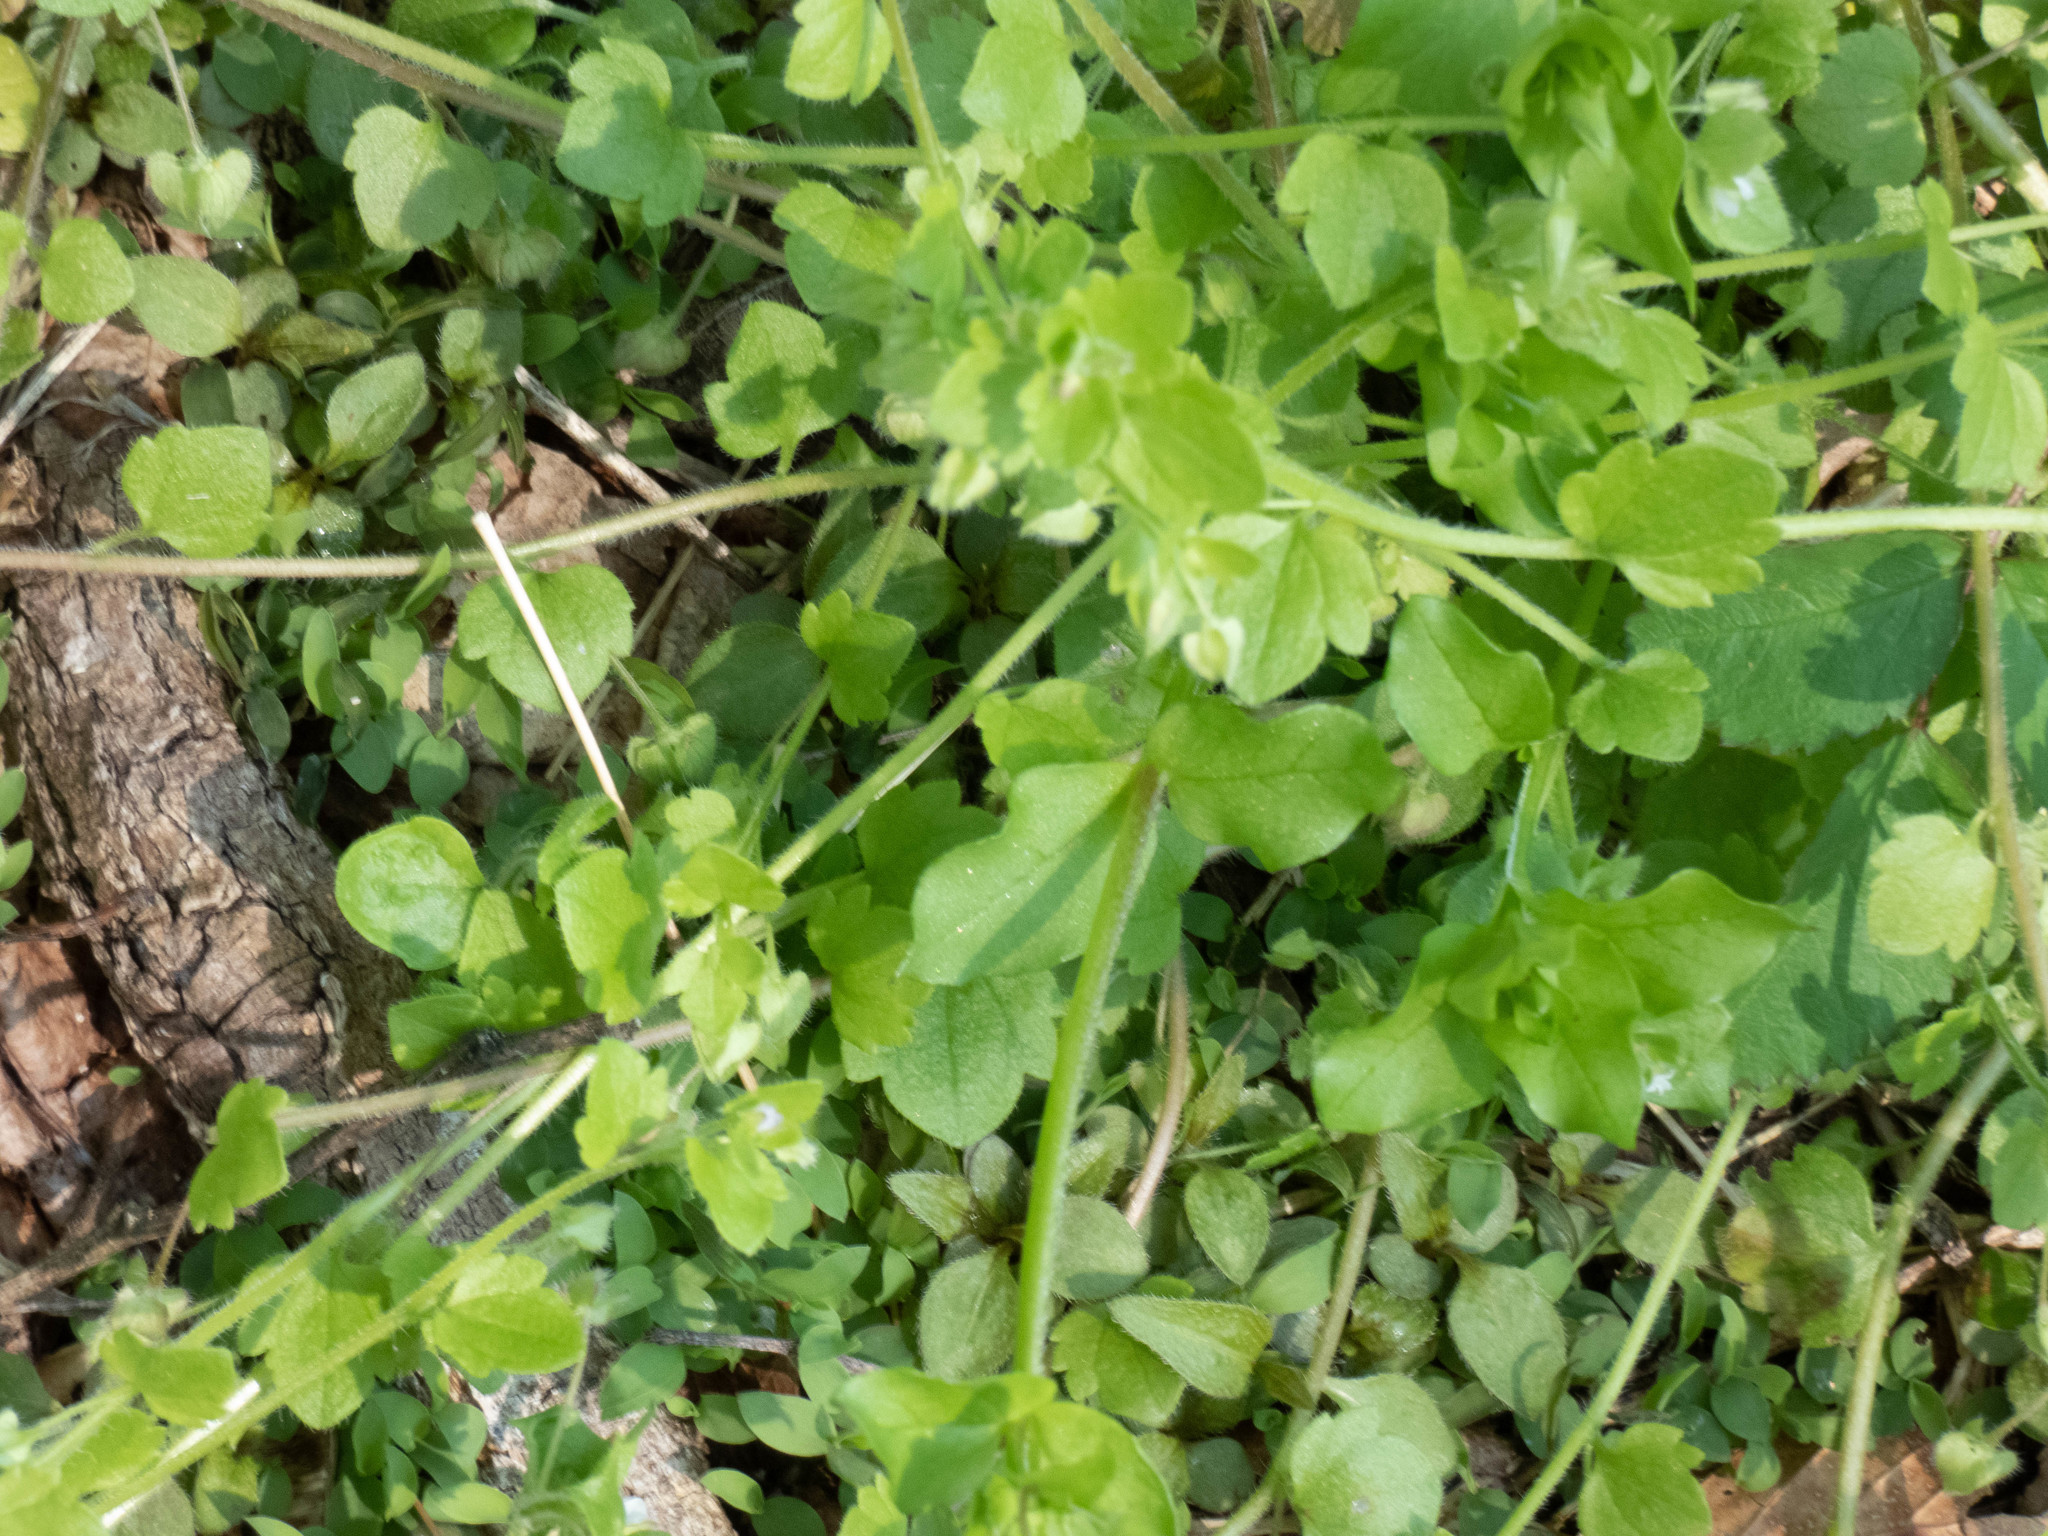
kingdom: Plantae
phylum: Tracheophyta
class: Magnoliopsida
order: Lamiales
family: Plantaginaceae
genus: Veronica
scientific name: Veronica hederifolia
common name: Ivy-leaved speedwell
